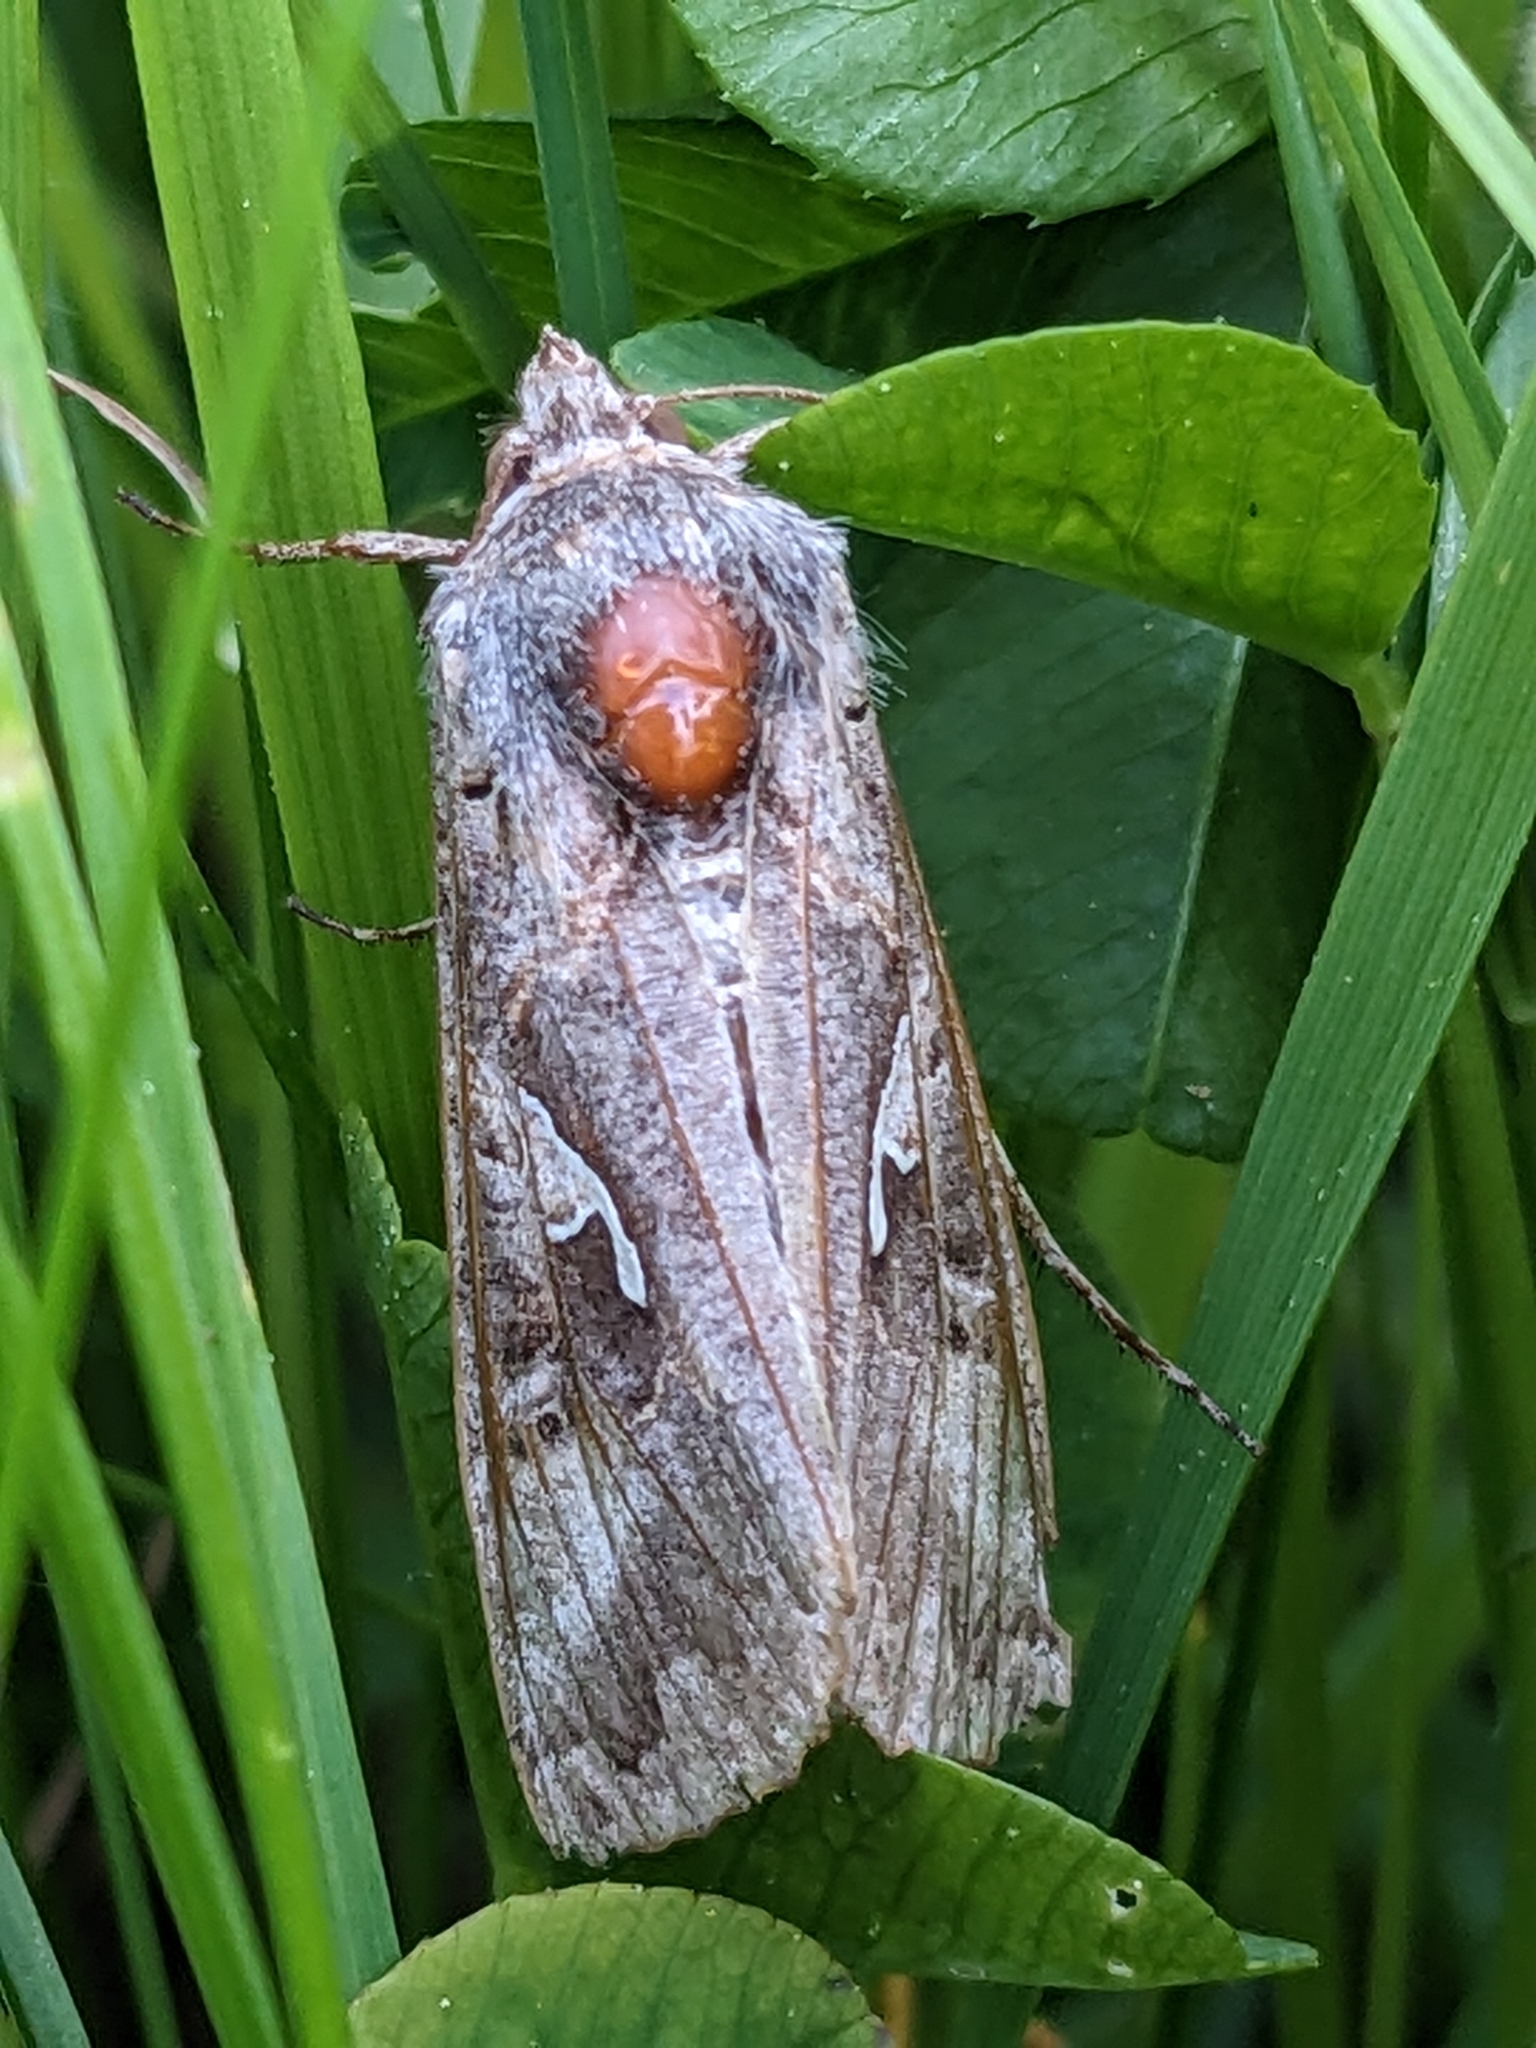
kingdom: Animalia
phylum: Arthropoda
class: Insecta
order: Lepidoptera
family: Noctuidae
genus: Autographa
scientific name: Autographa gamma
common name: Silver y
